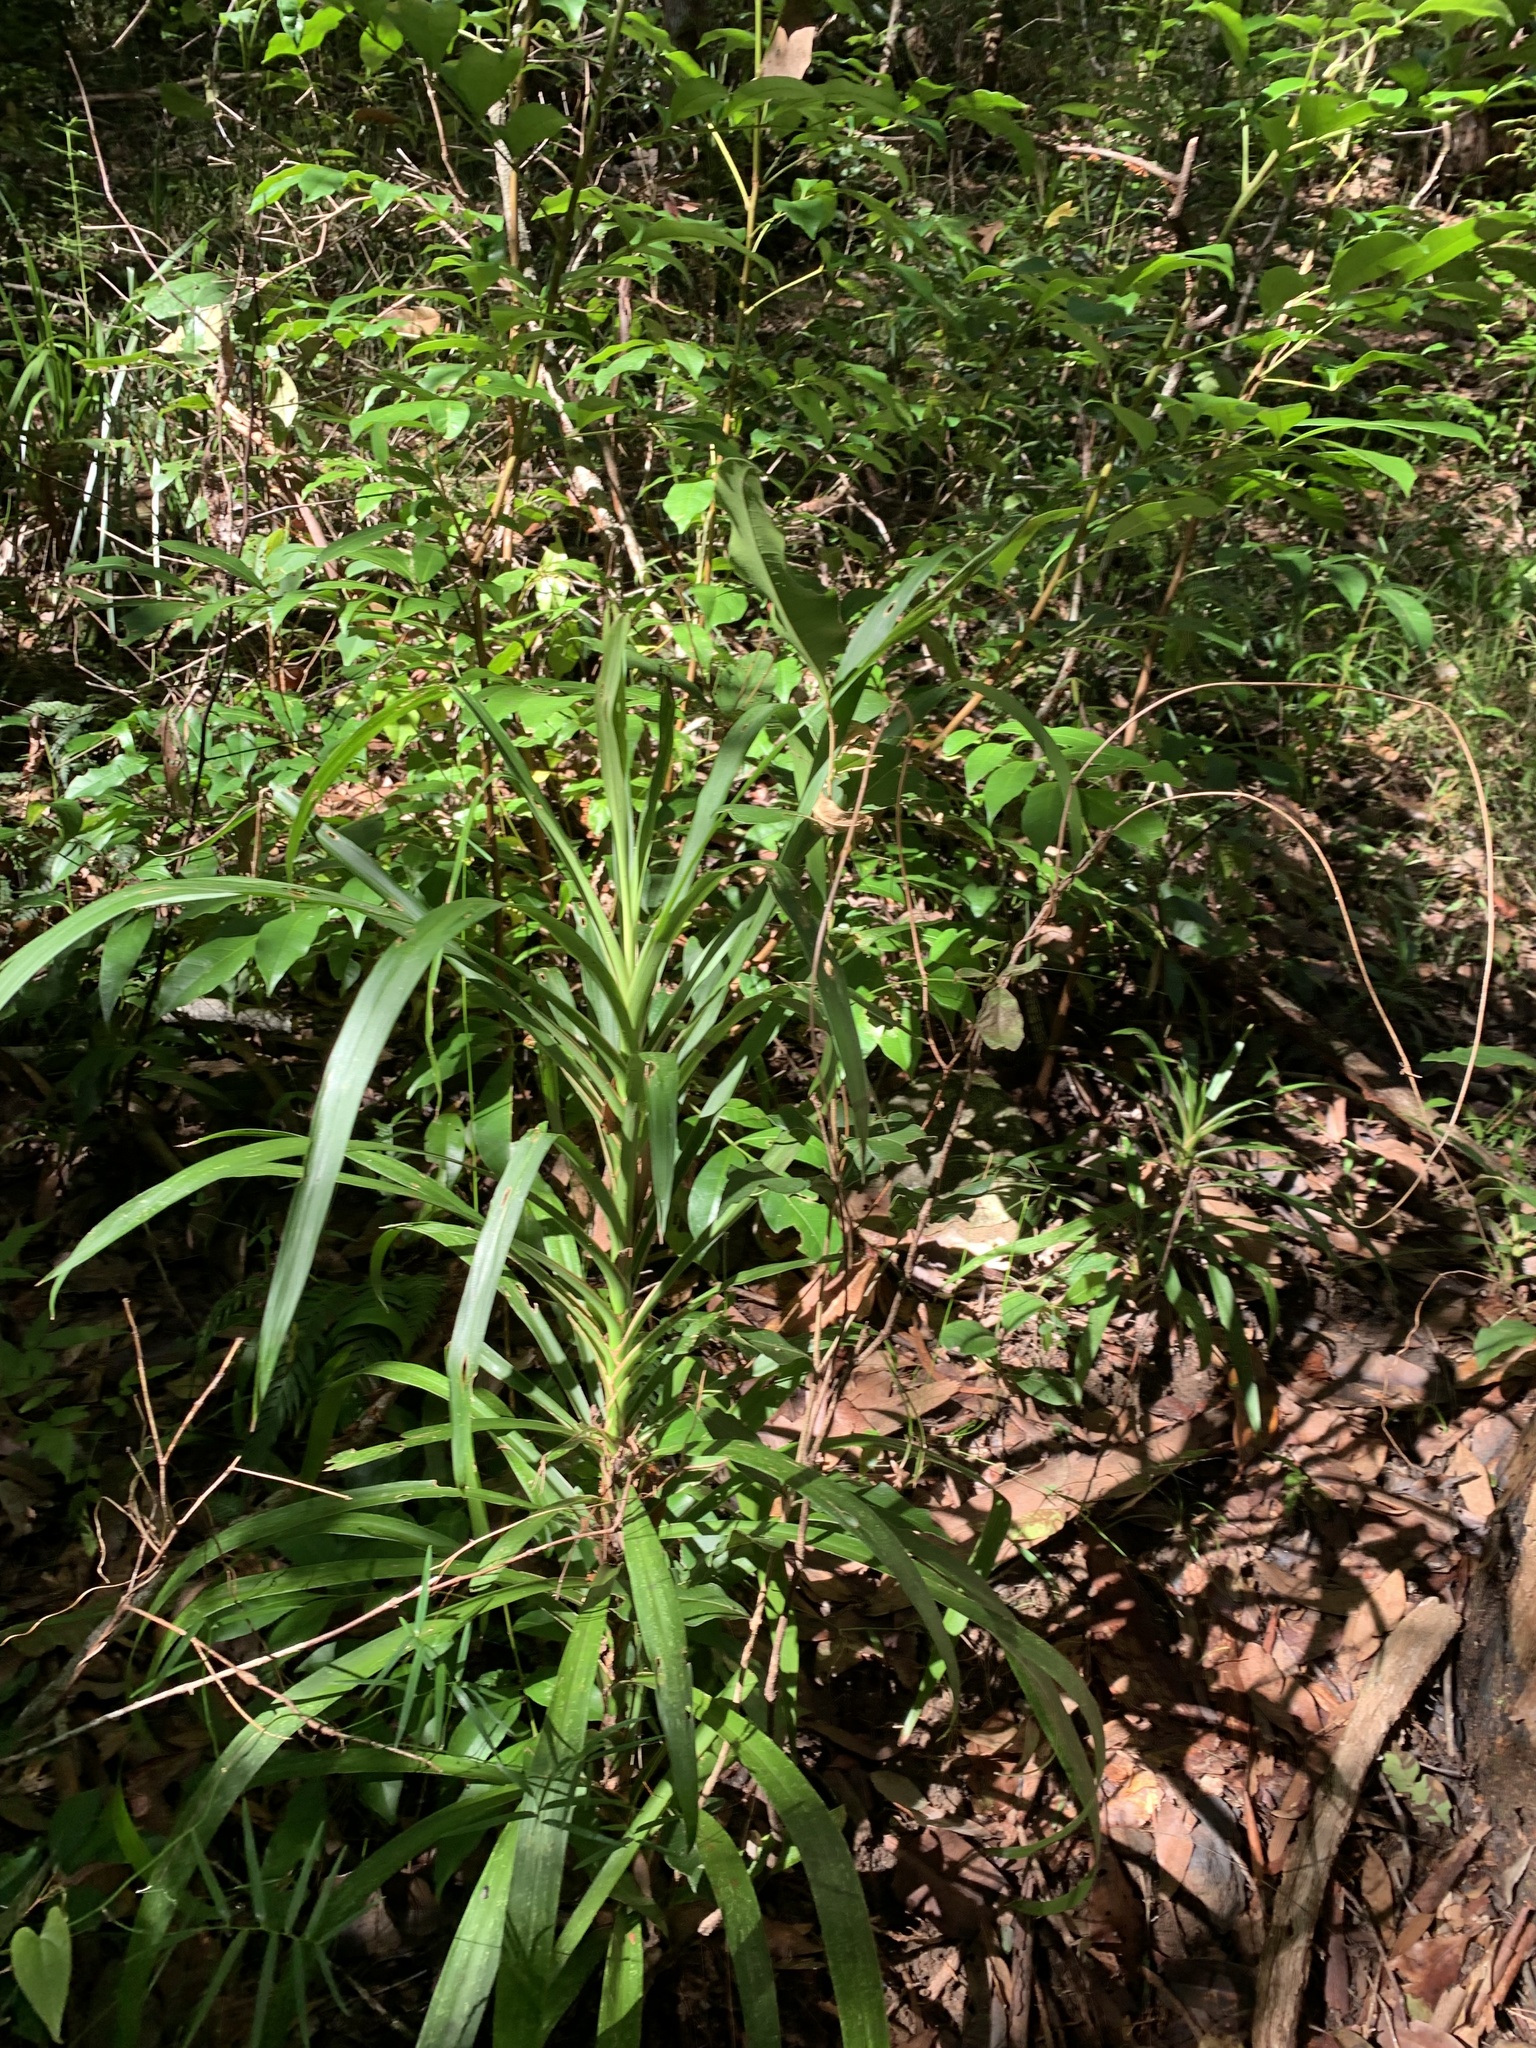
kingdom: Plantae
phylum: Tracheophyta
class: Liliopsida
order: Asparagales
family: Asparagaceae
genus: Cordyline
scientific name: Cordyline stricta
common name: Narrow-leaf palm-lily
